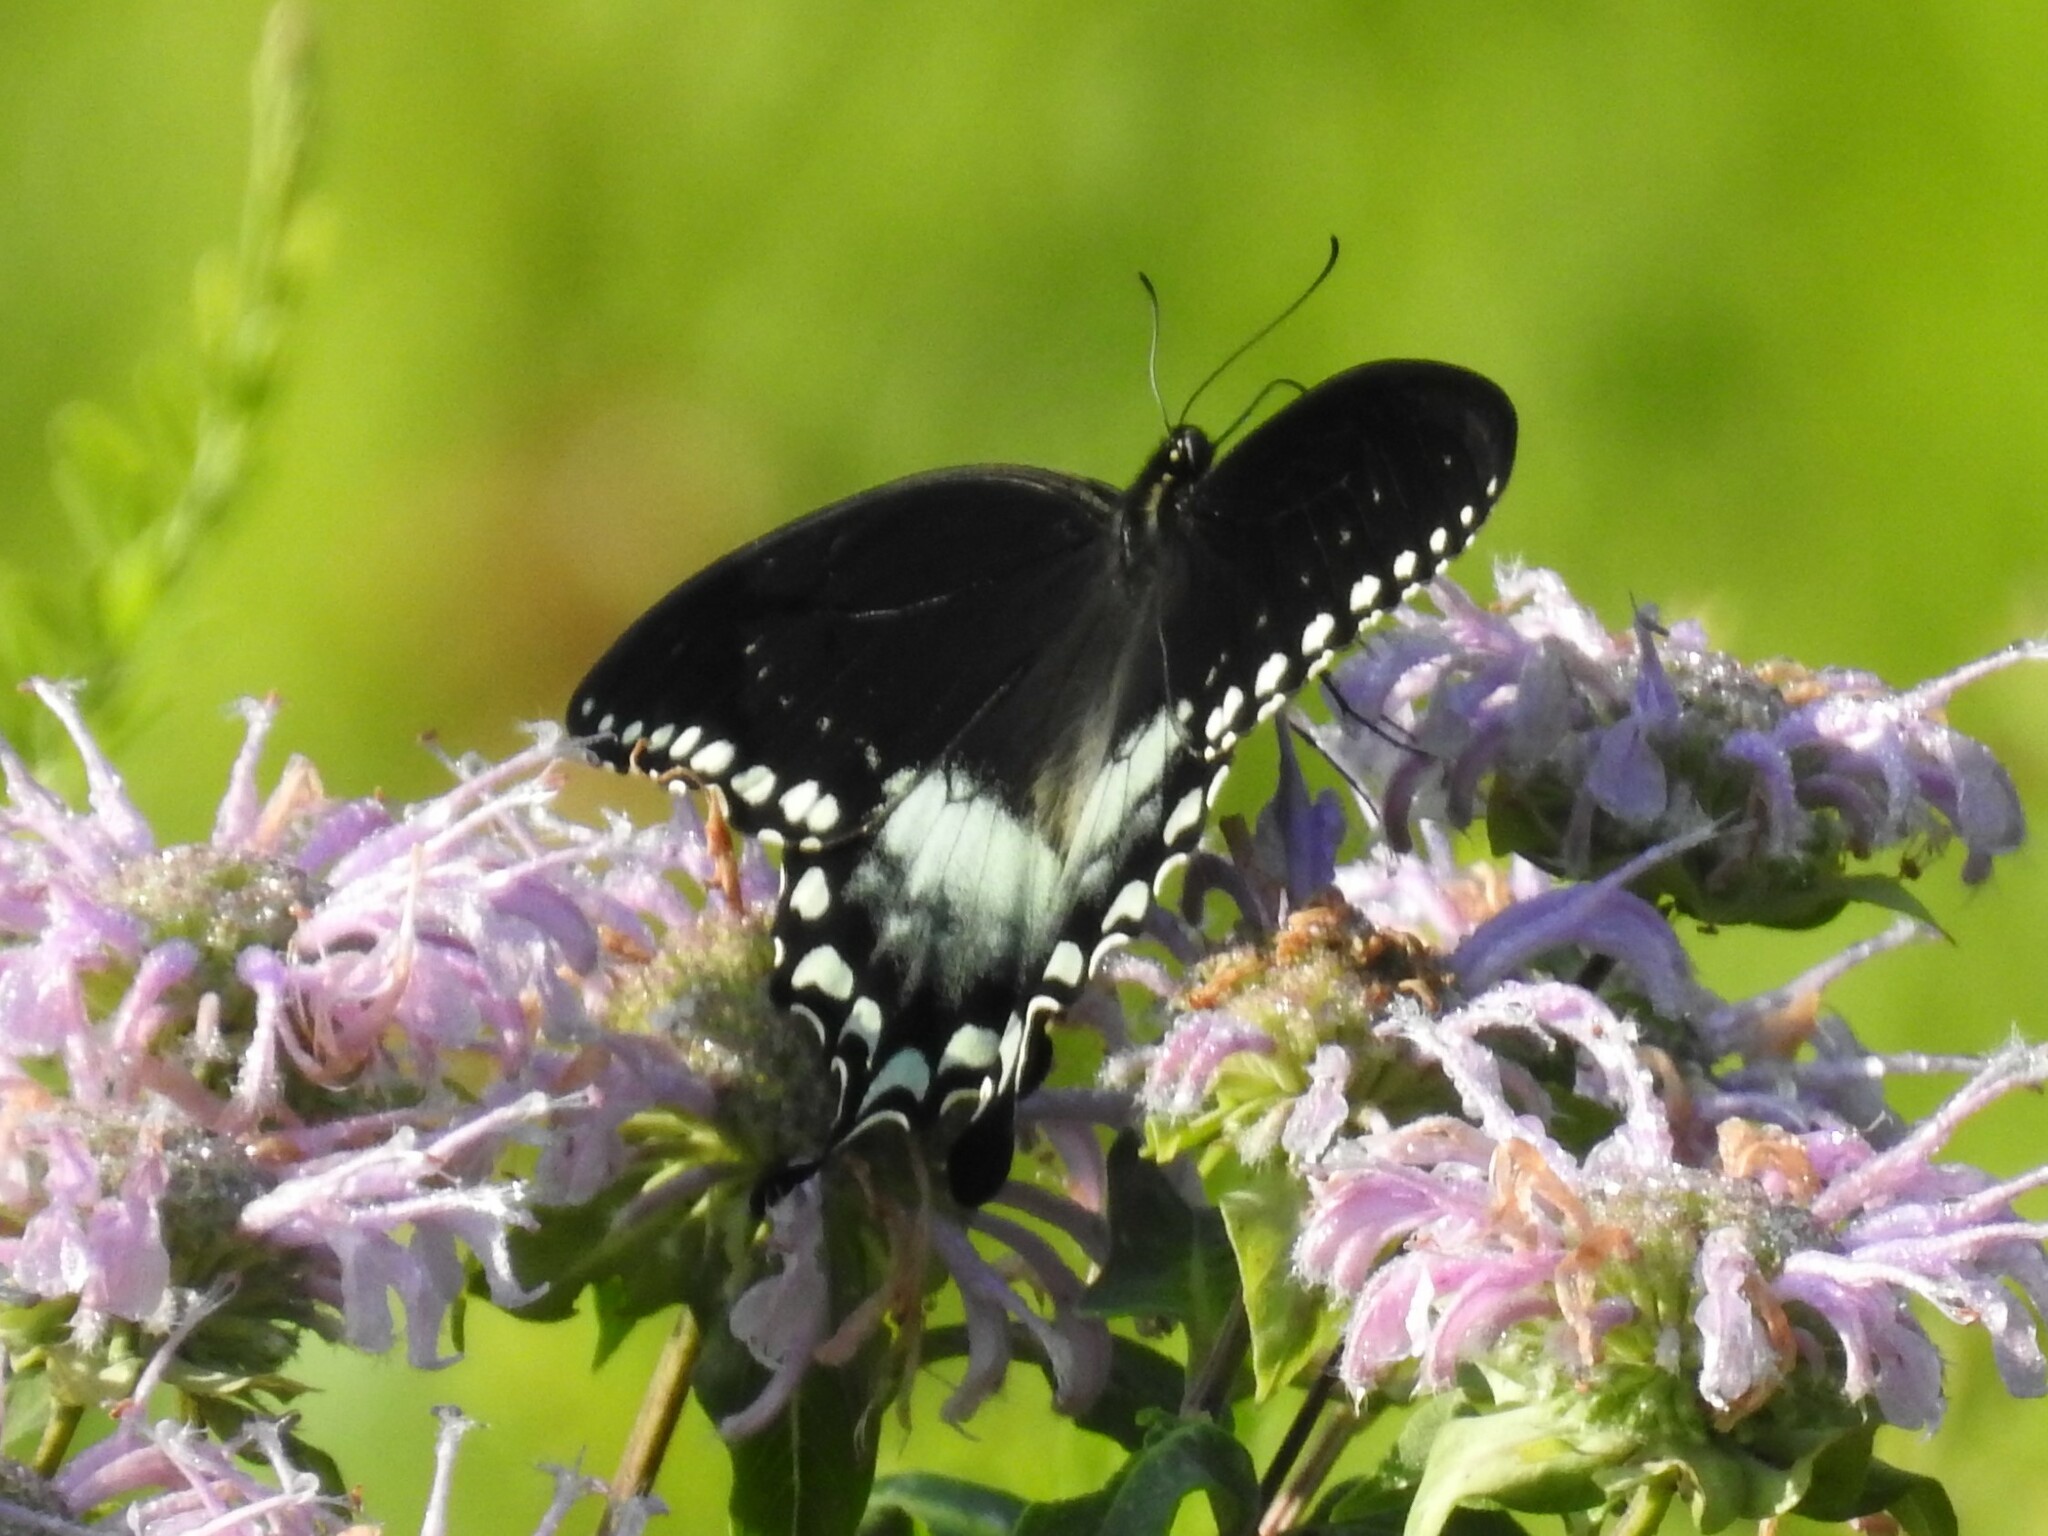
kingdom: Animalia
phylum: Arthropoda
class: Insecta
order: Lepidoptera
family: Papilionidae
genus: Papilio
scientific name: Papilio troilus
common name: Spicebush swallowtail
